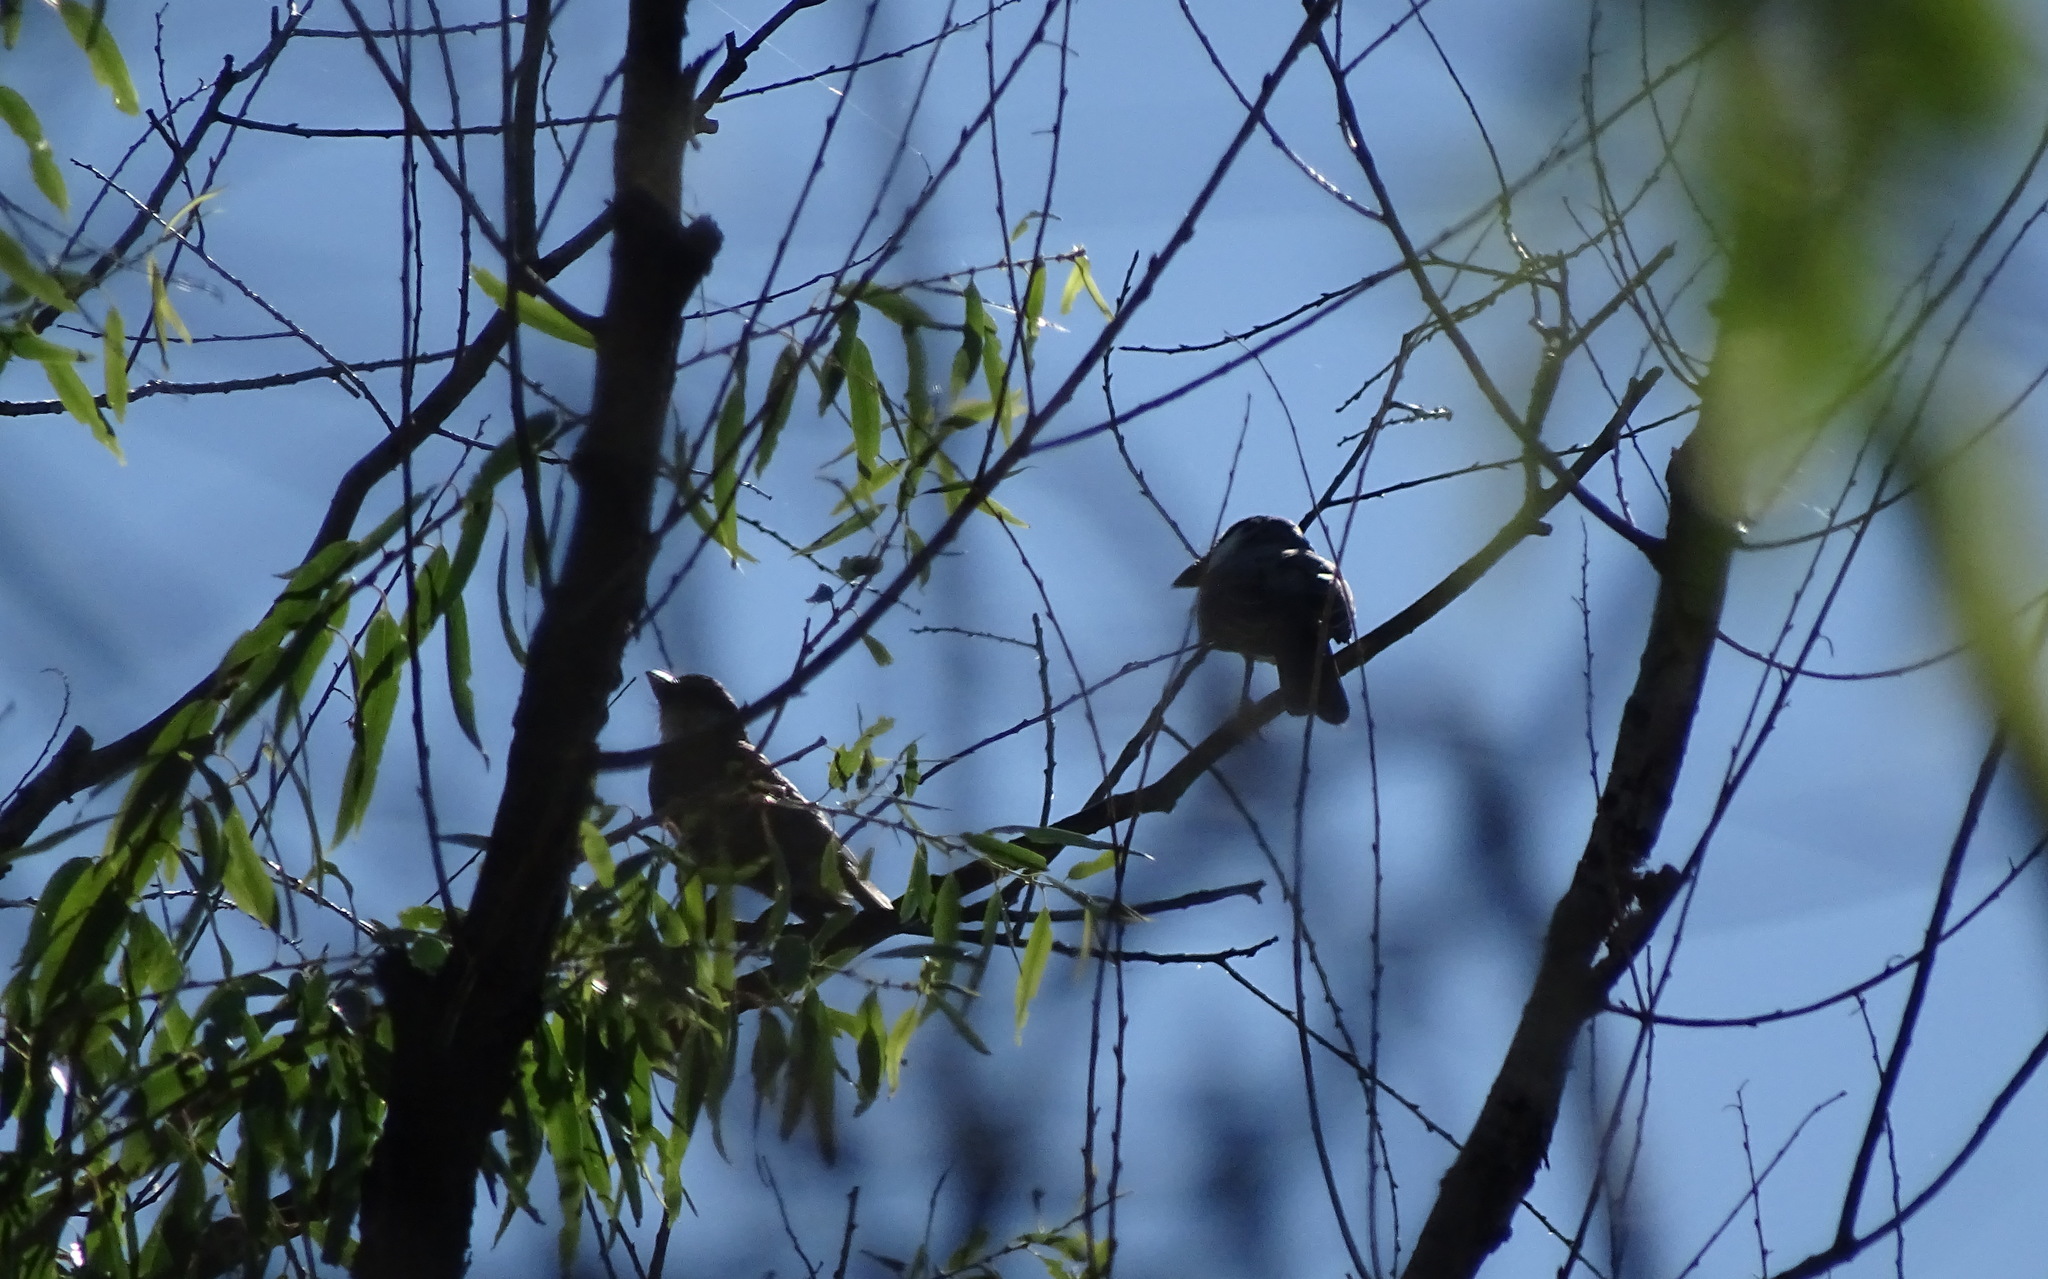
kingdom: Animalia
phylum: Chordata
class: Aves
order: Passeriformes
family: Tyrannidae
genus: Tyrannus
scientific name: Tyrannus crassirostris
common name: Thick-billed kingbird
